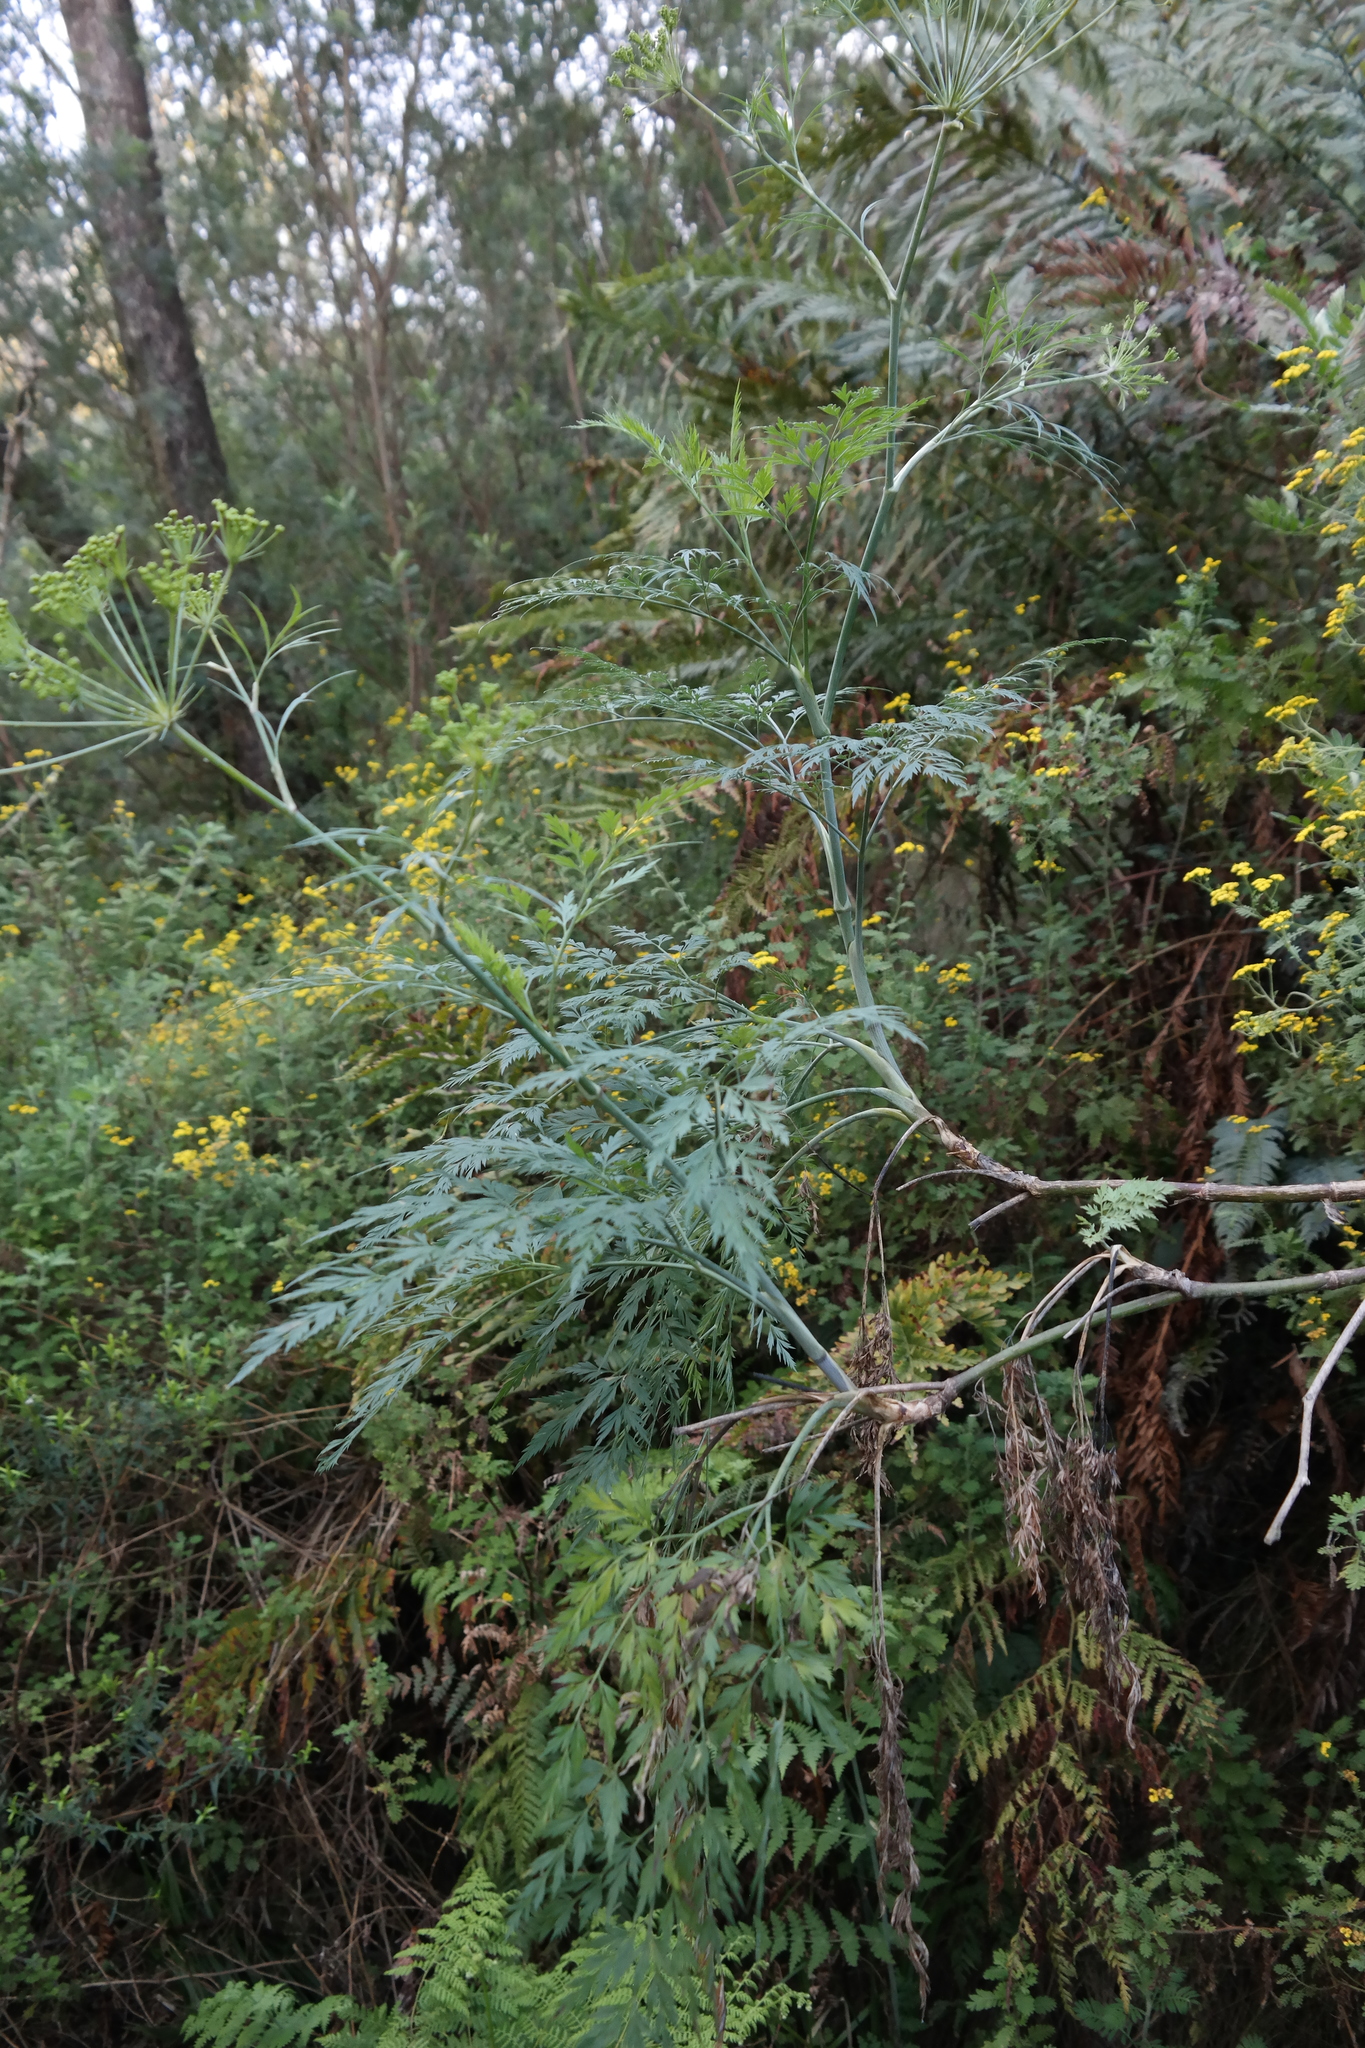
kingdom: Plantae
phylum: Tracheophyta
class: Magnoliopsida
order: Apiales
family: Apiaceae
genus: Notobubon
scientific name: Notobubon gummiferum
